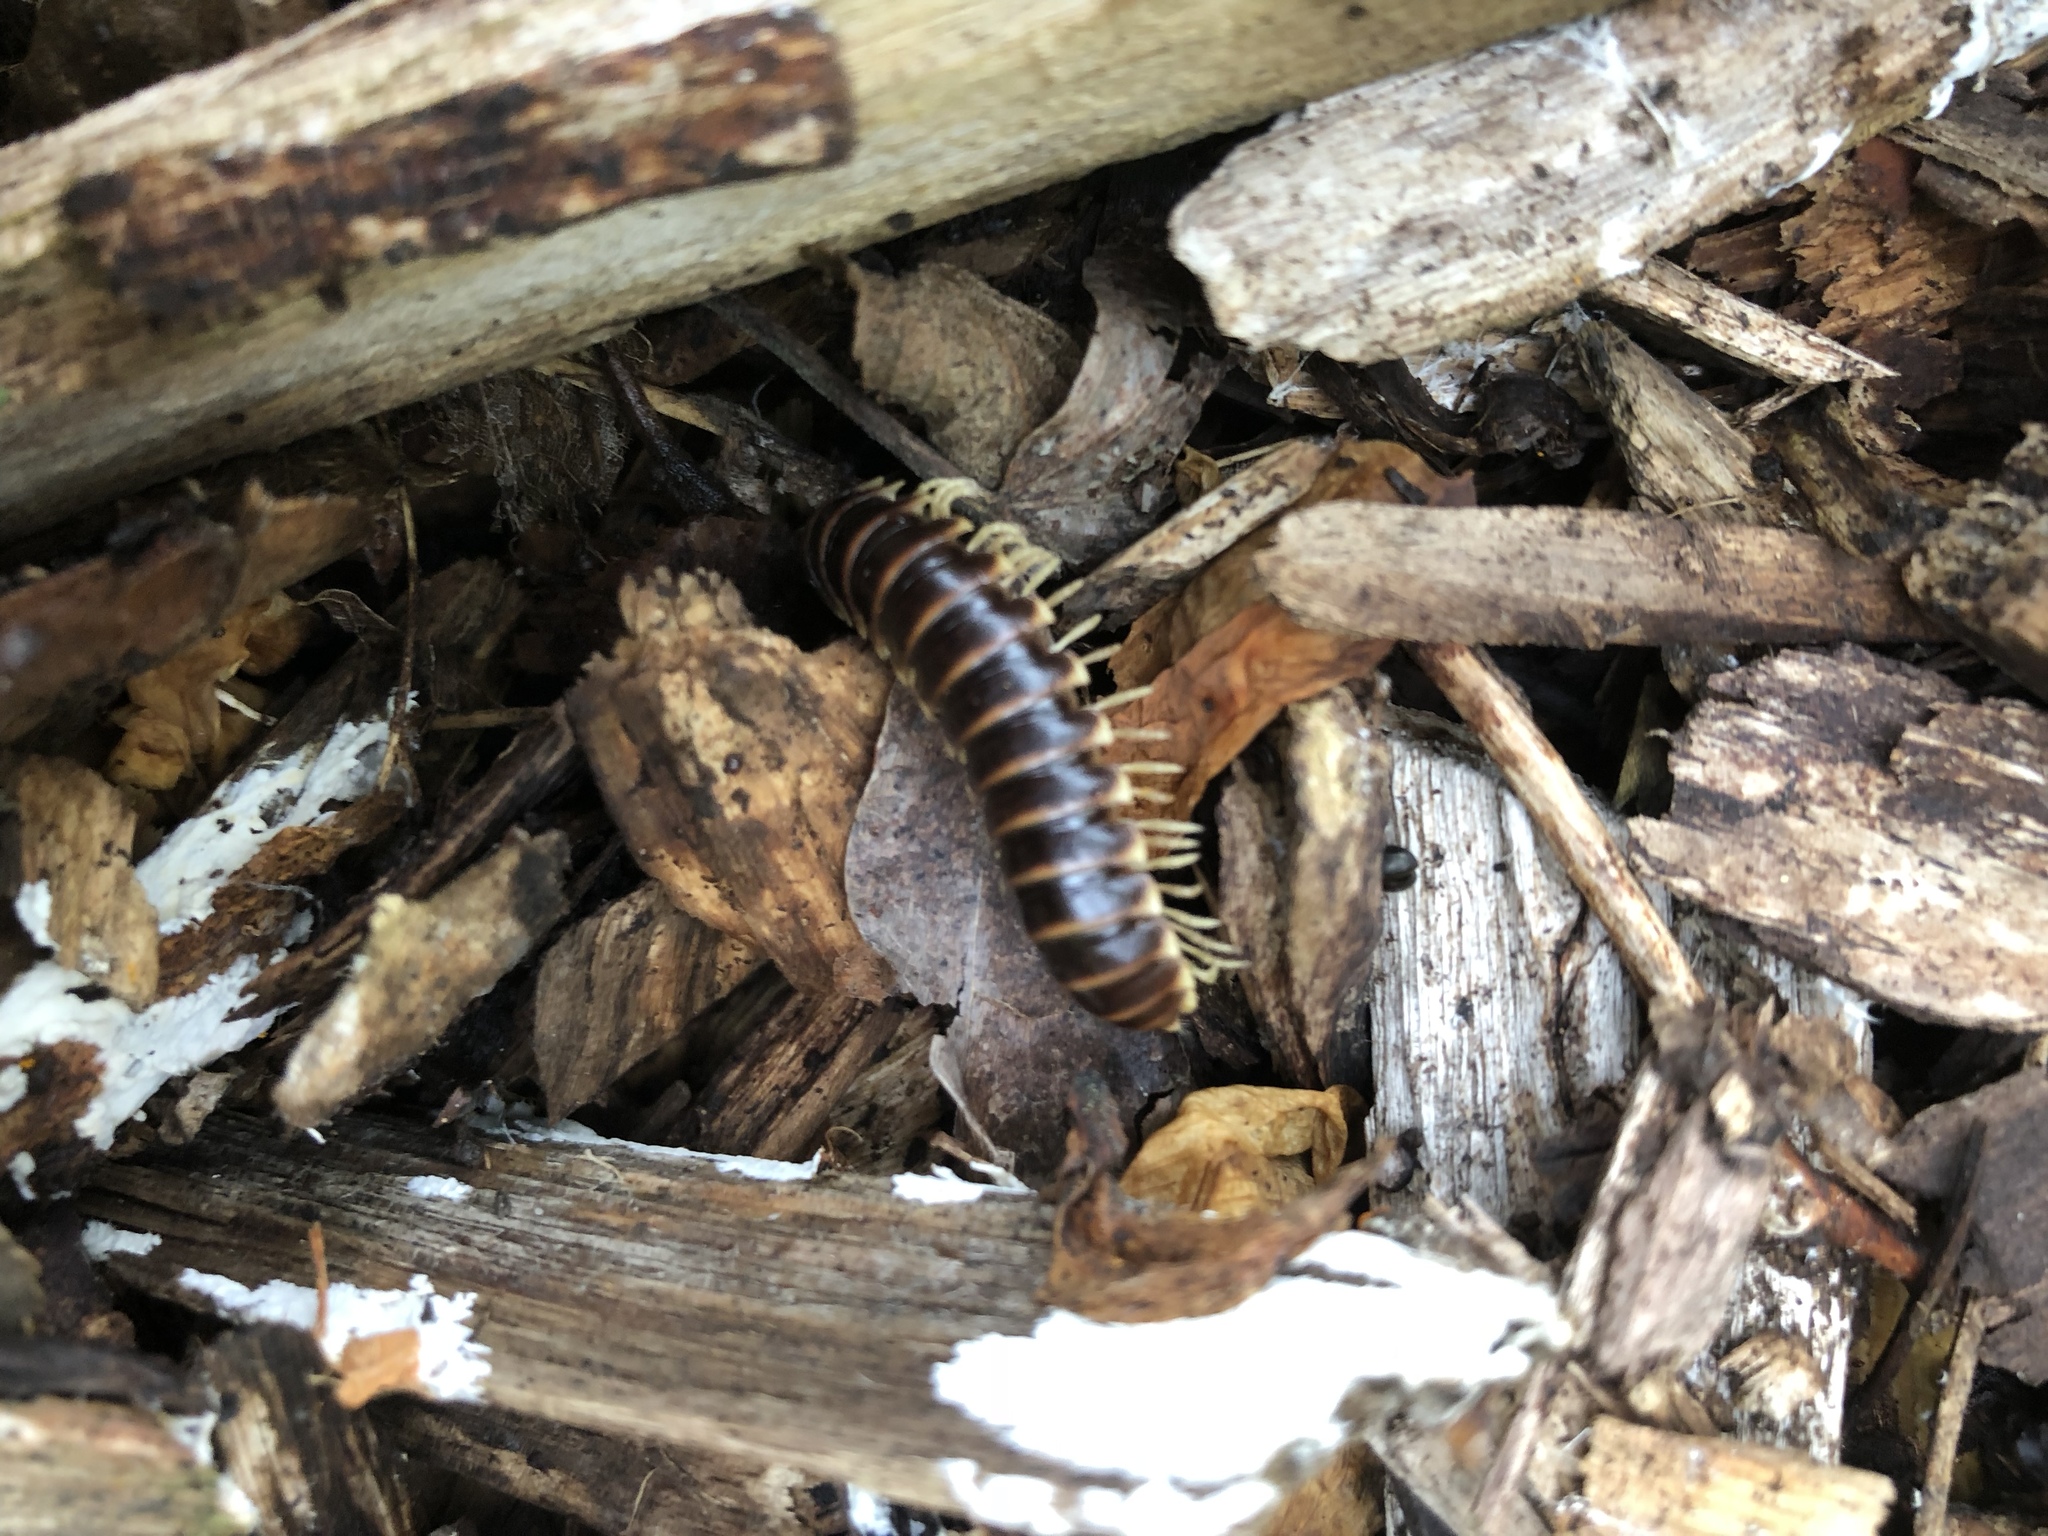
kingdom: Animalia
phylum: Arthropoda
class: Diplopoda
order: Polydesmida
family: Xystodesmidae
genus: Pleuroloma
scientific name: Pleuroloma flavipes
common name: Yellow-legged pleuroloma
